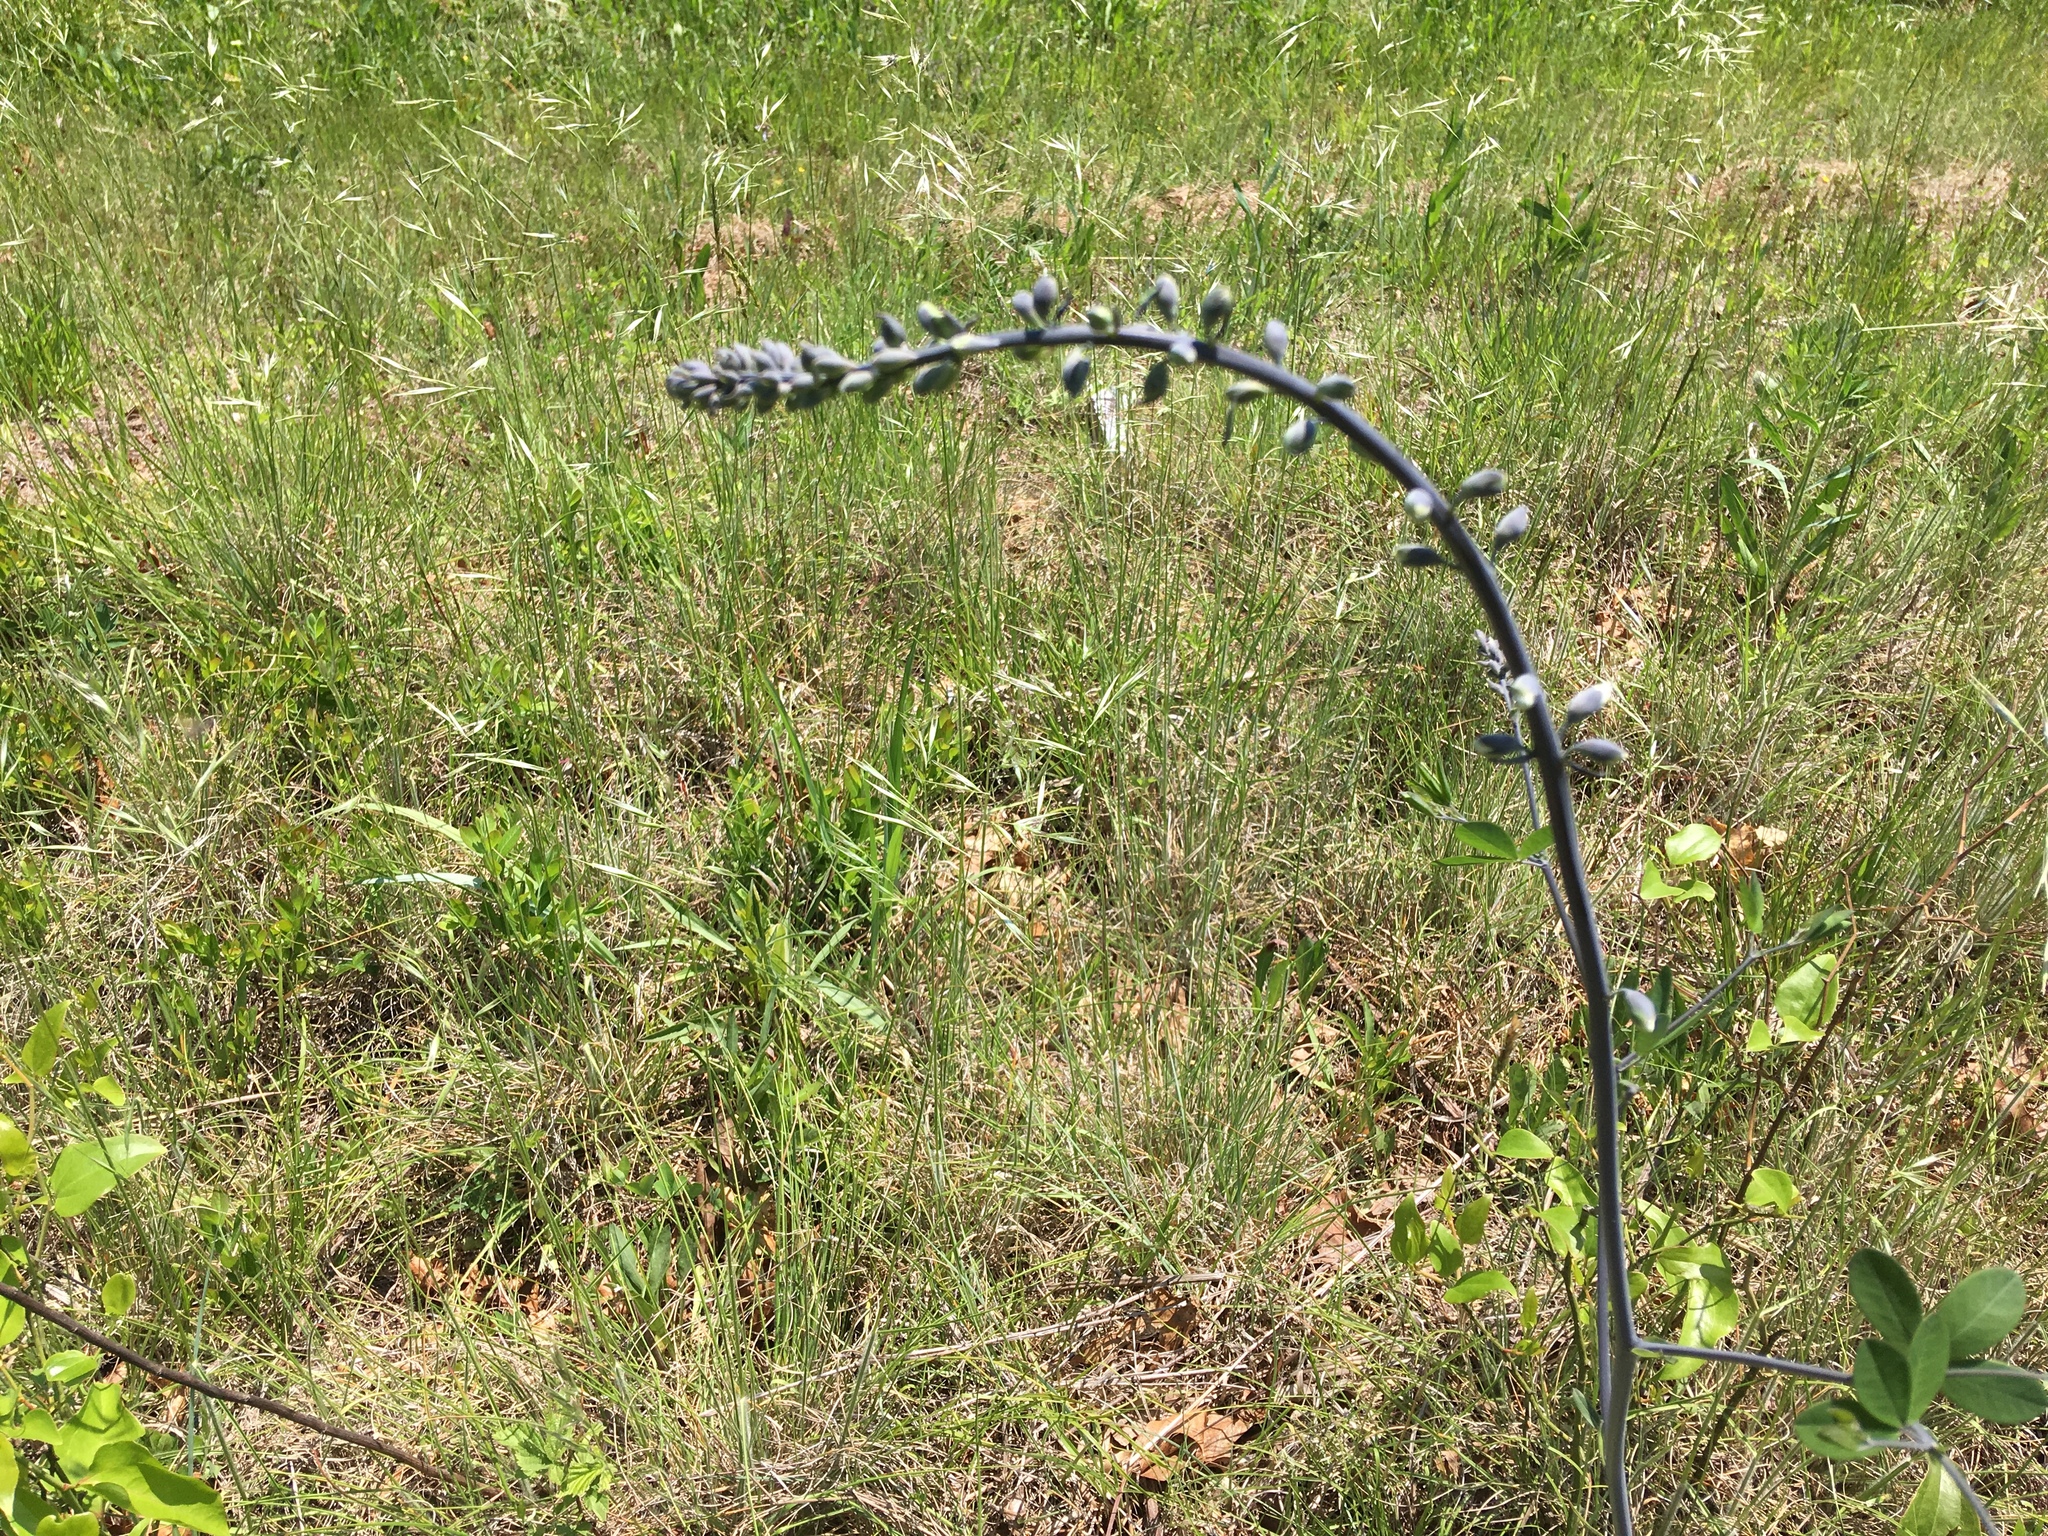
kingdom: Plantae
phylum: Tracheophyta
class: Magnoliopsida
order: Fabales
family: Fabaceae
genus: Baptisia
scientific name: Baptisia alba
